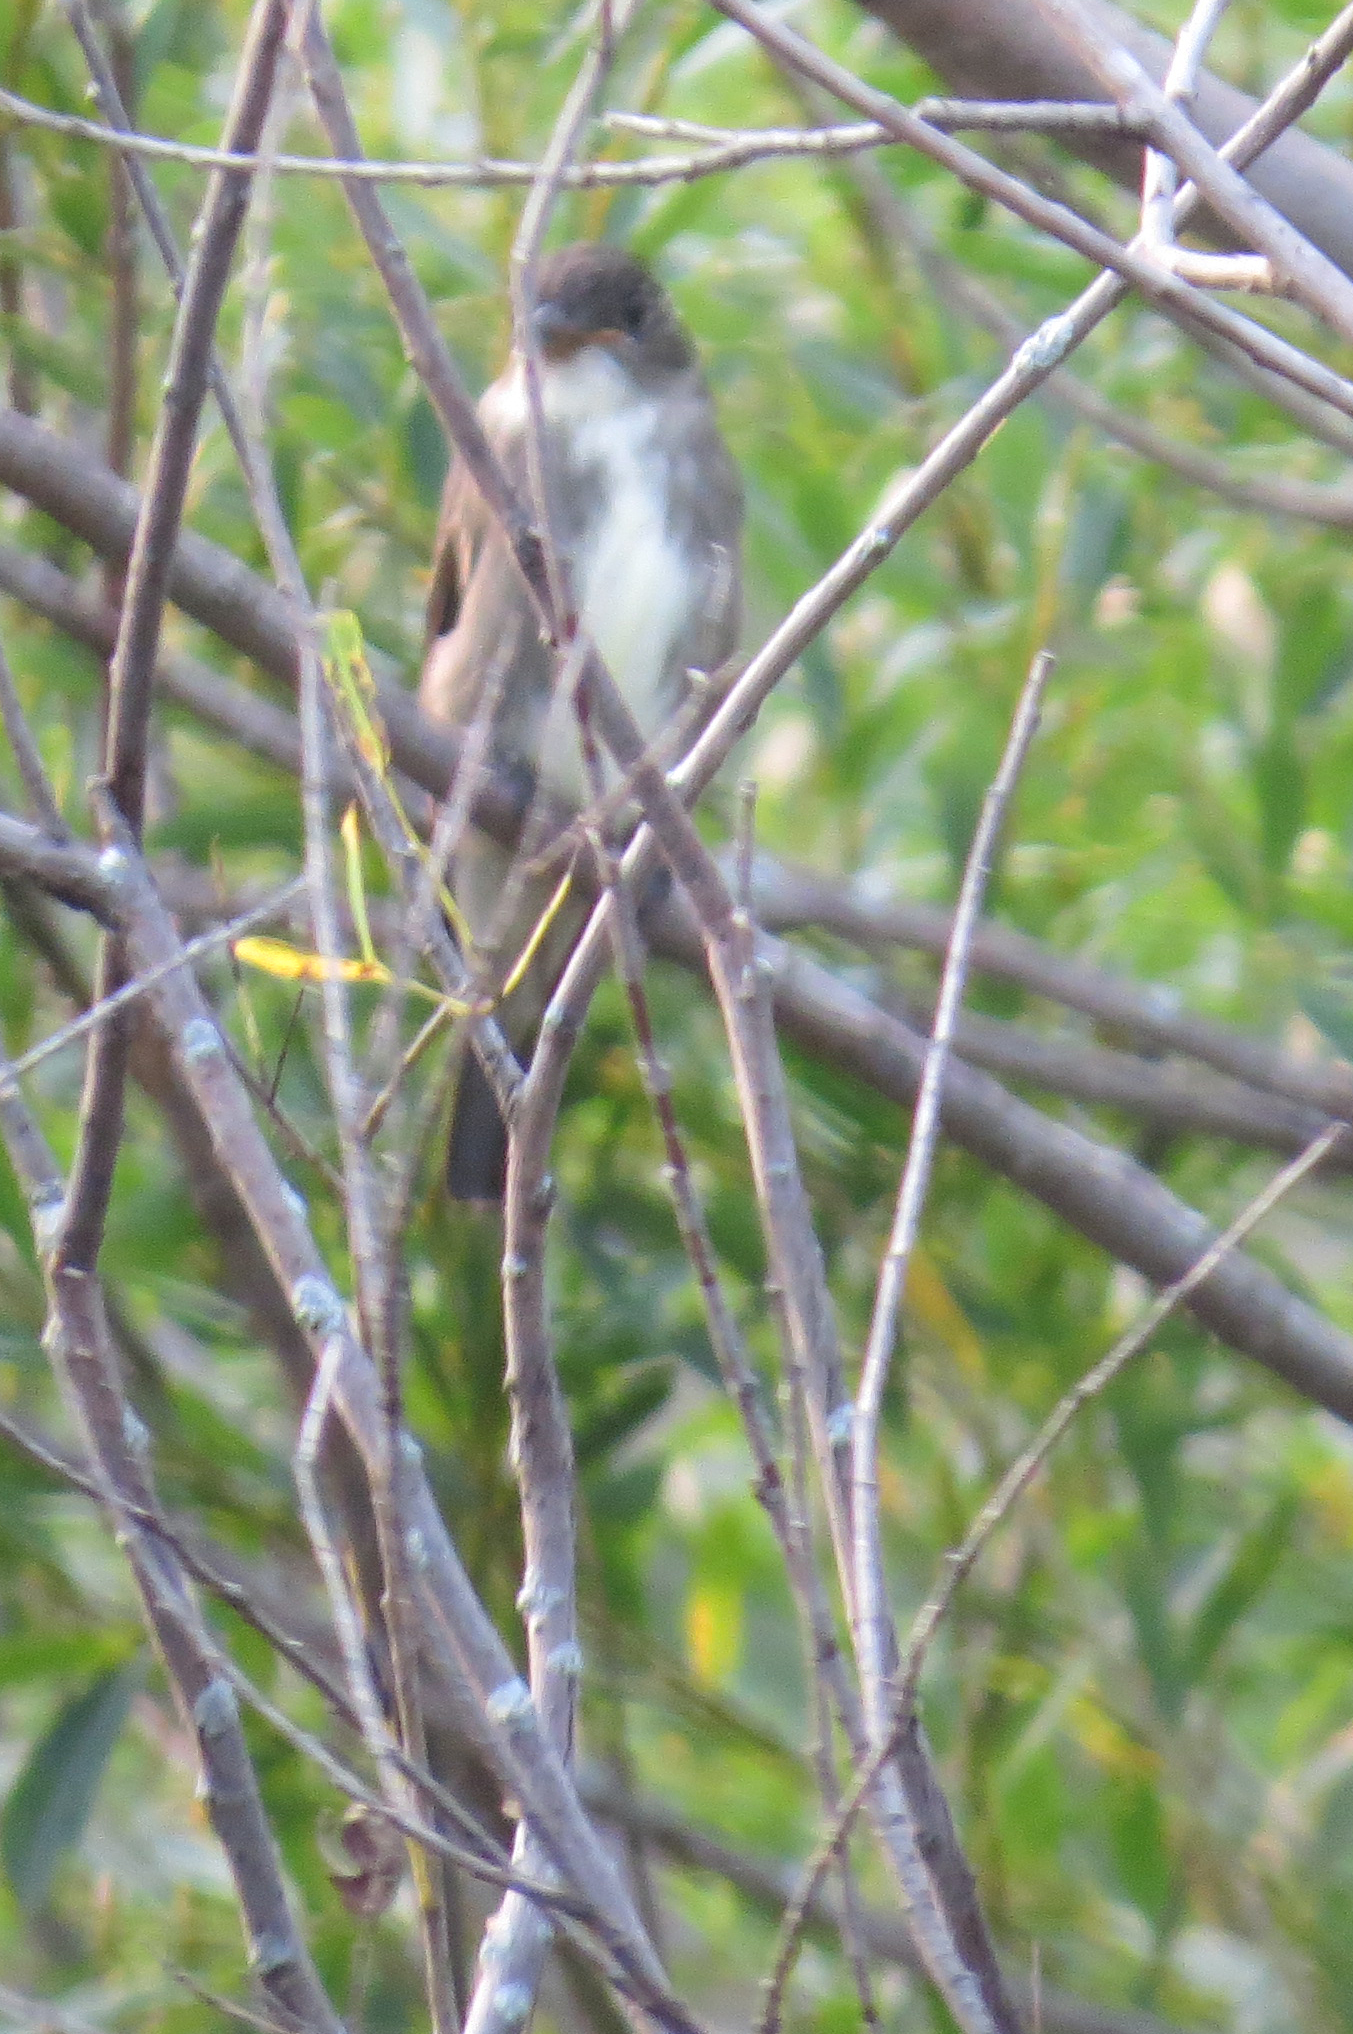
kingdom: Animalia
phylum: Chordata
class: Aves
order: Passeriformes
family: Tyrannidae
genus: Contopus
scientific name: Contopus cooperi
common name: Olive-sided flycatcher
